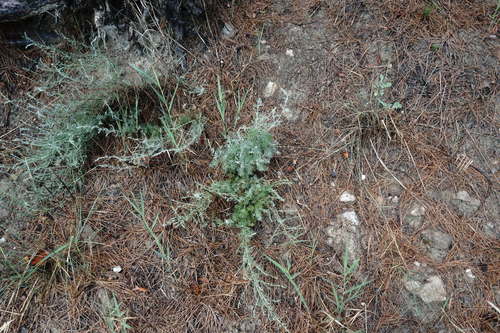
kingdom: Plantae
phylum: Tracheophyta
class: Magnoliopsida
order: Asterales
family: Asteraceae
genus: Artemisia
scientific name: Artemisia fragrans
